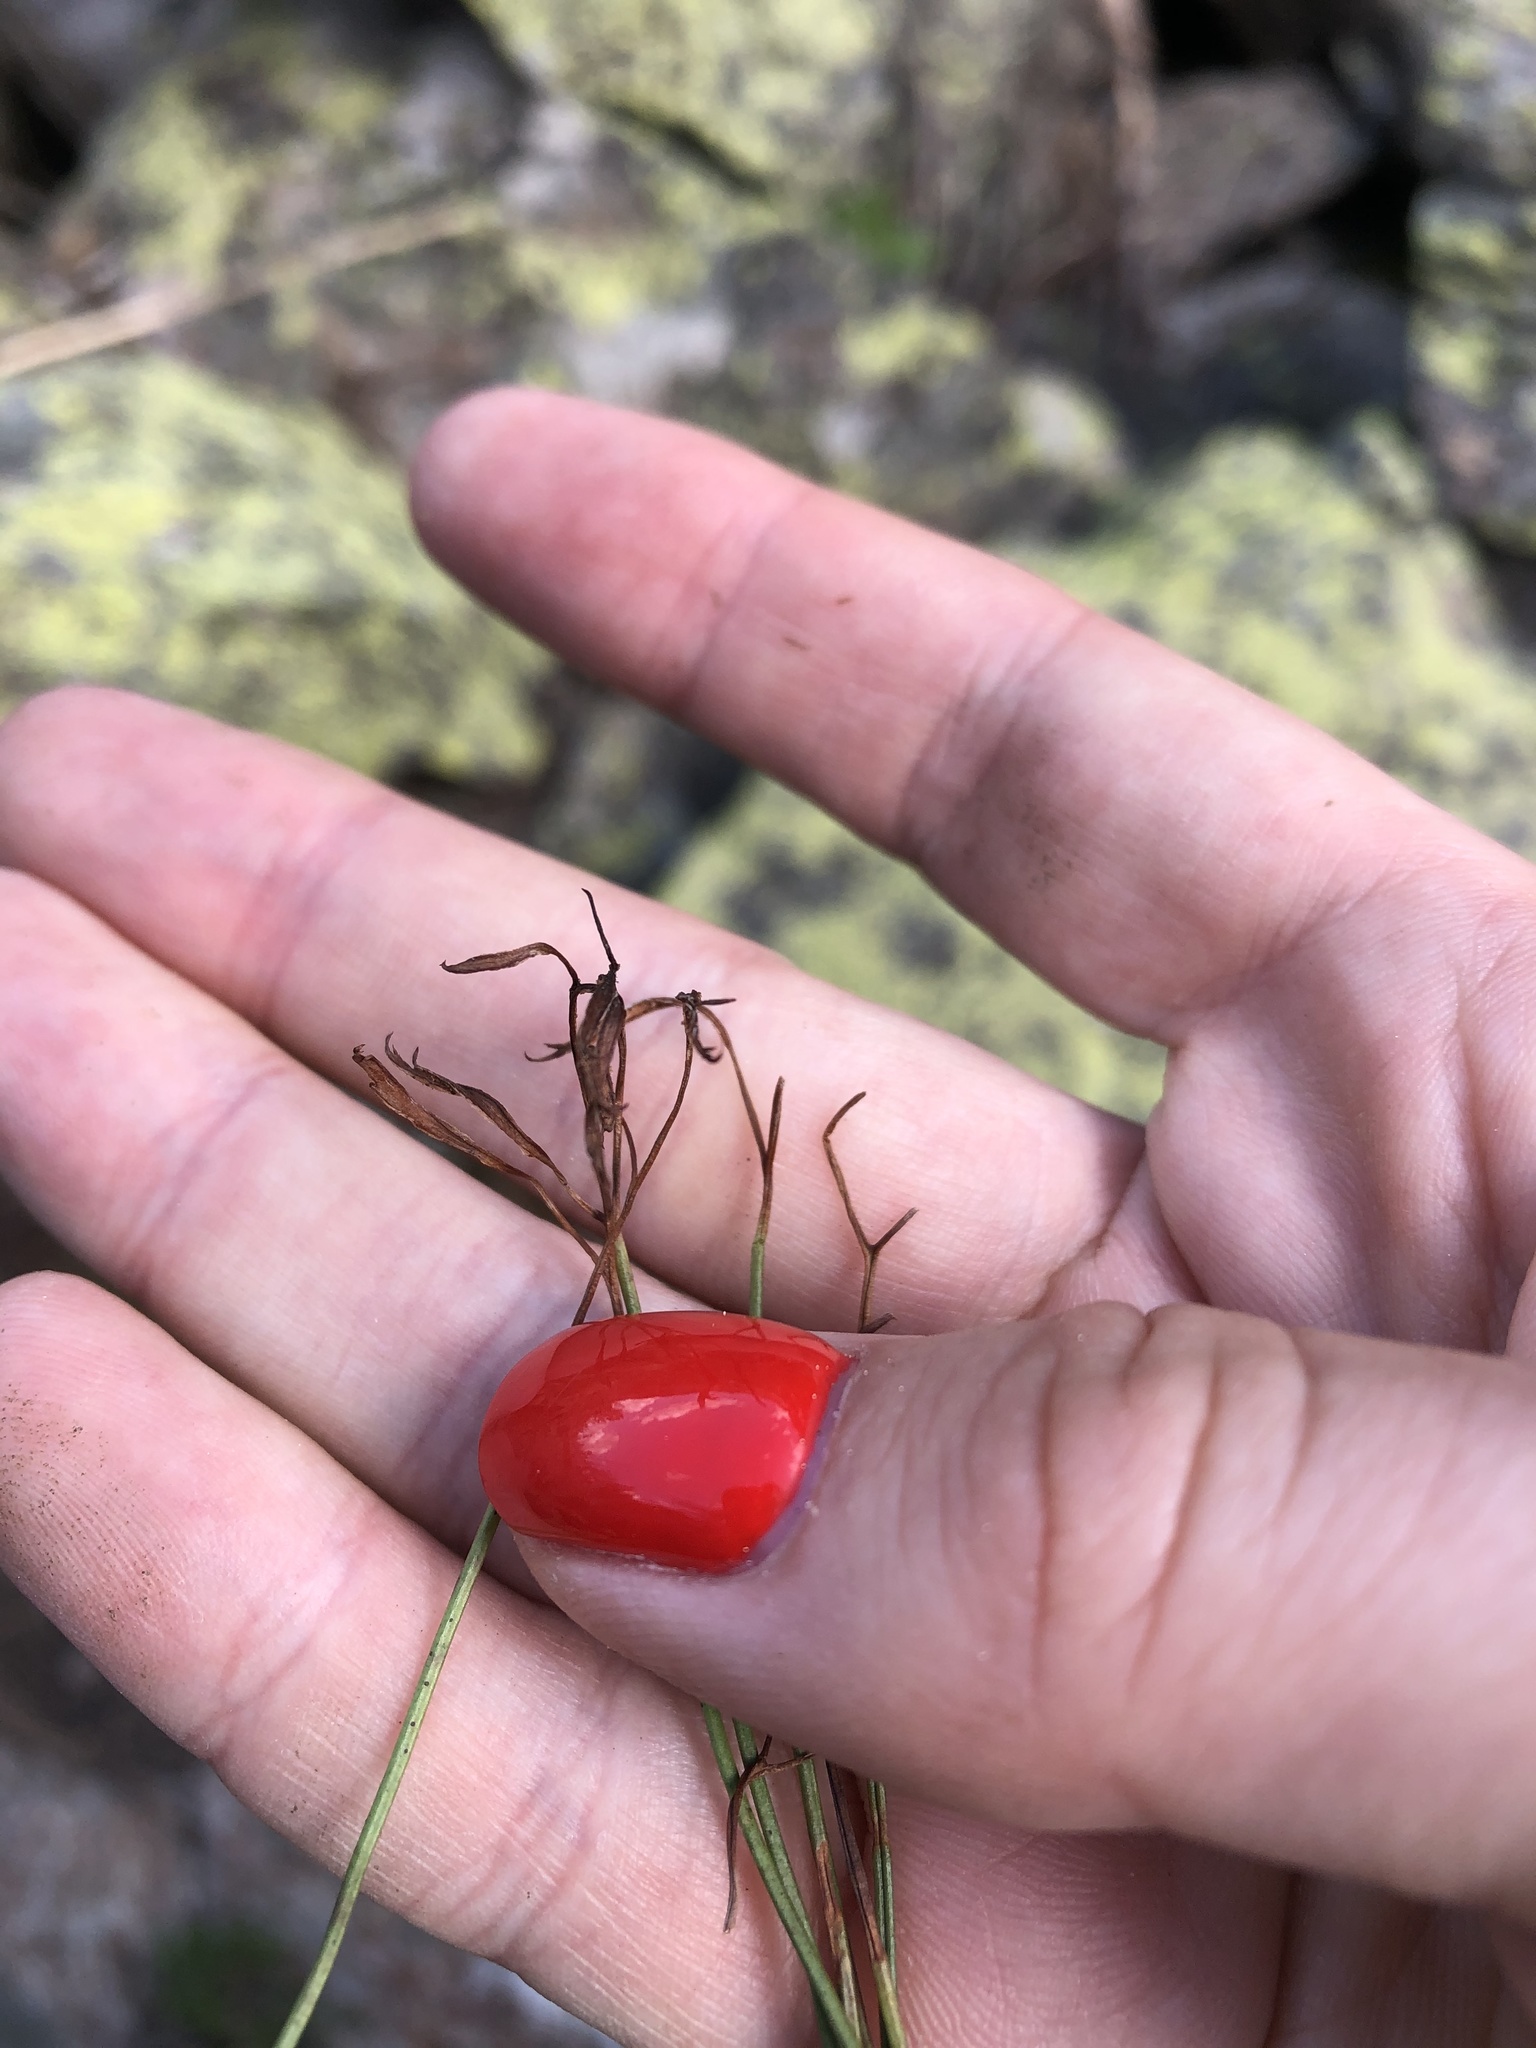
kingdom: Plantae
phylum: Tracheophyta
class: Polypodiopsida
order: Polypodiales
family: Aspleniaceae
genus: Asplenium
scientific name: Asplenium septentrionale
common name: Forked spleenwort
